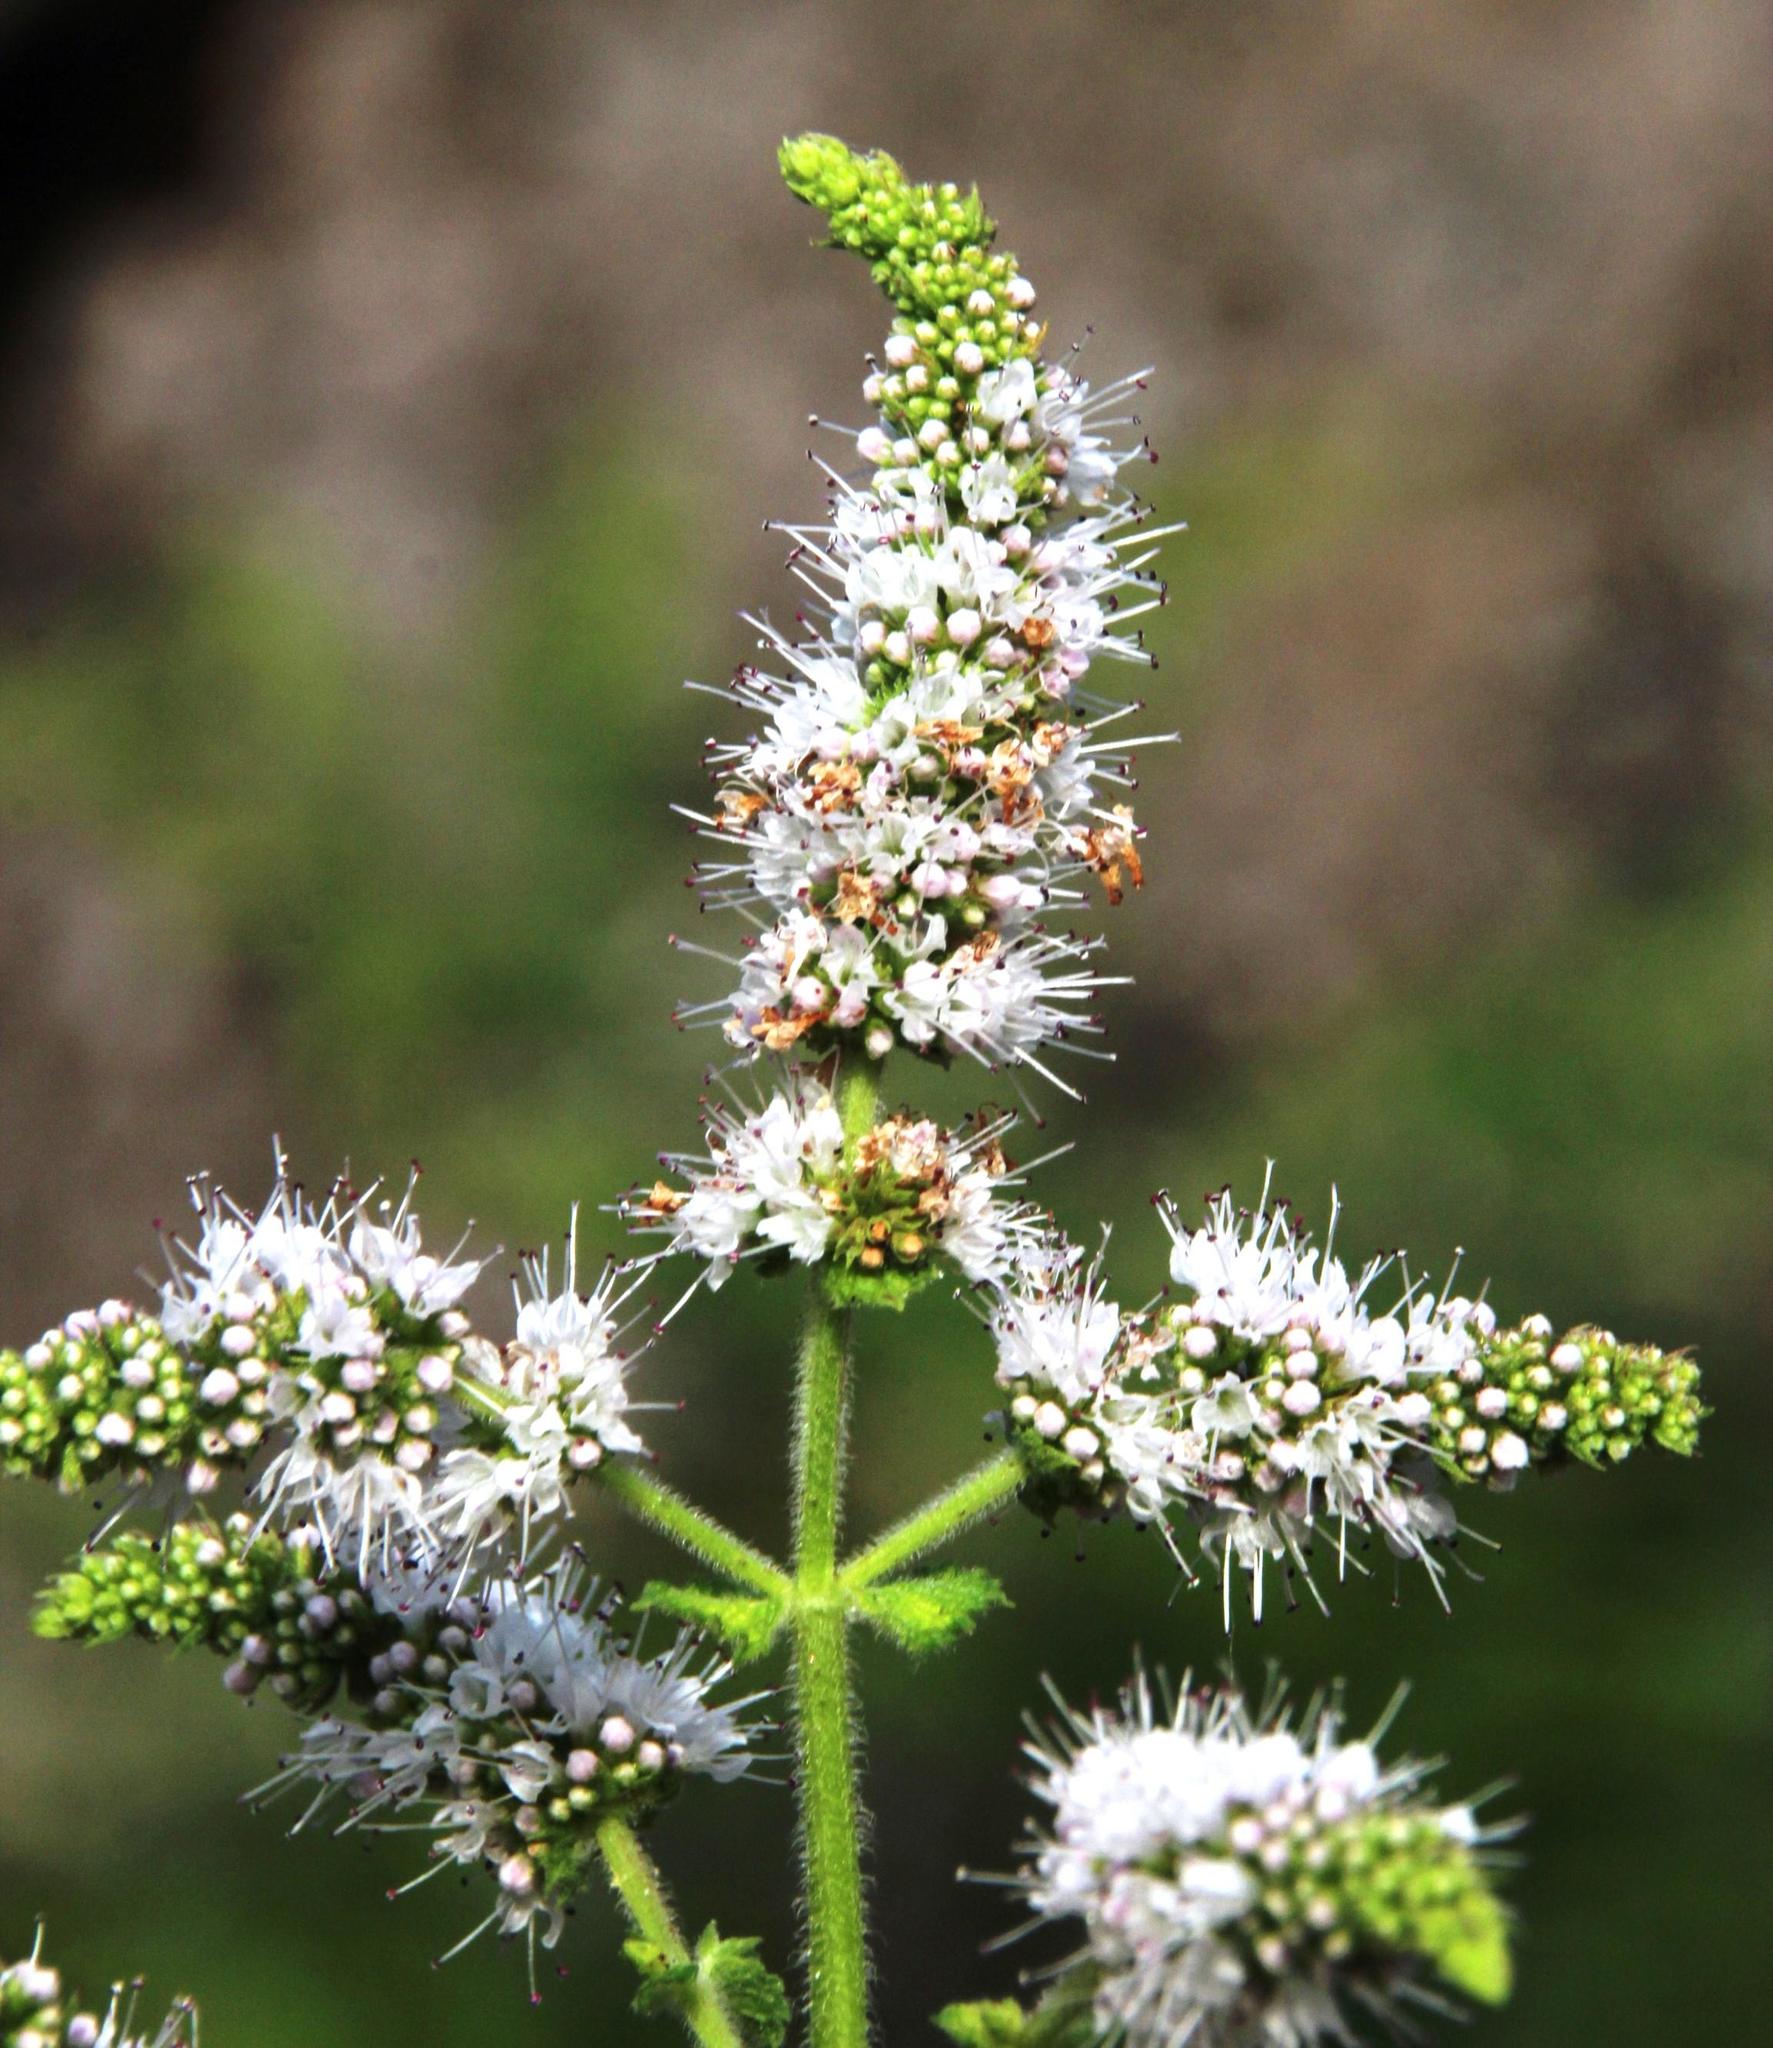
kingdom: Plantae
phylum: Tracheophyta
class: Magnoliopsida
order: Lamiales
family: Lamiaceae
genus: Mentha
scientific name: Mentha suaveolens
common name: Apple mint
